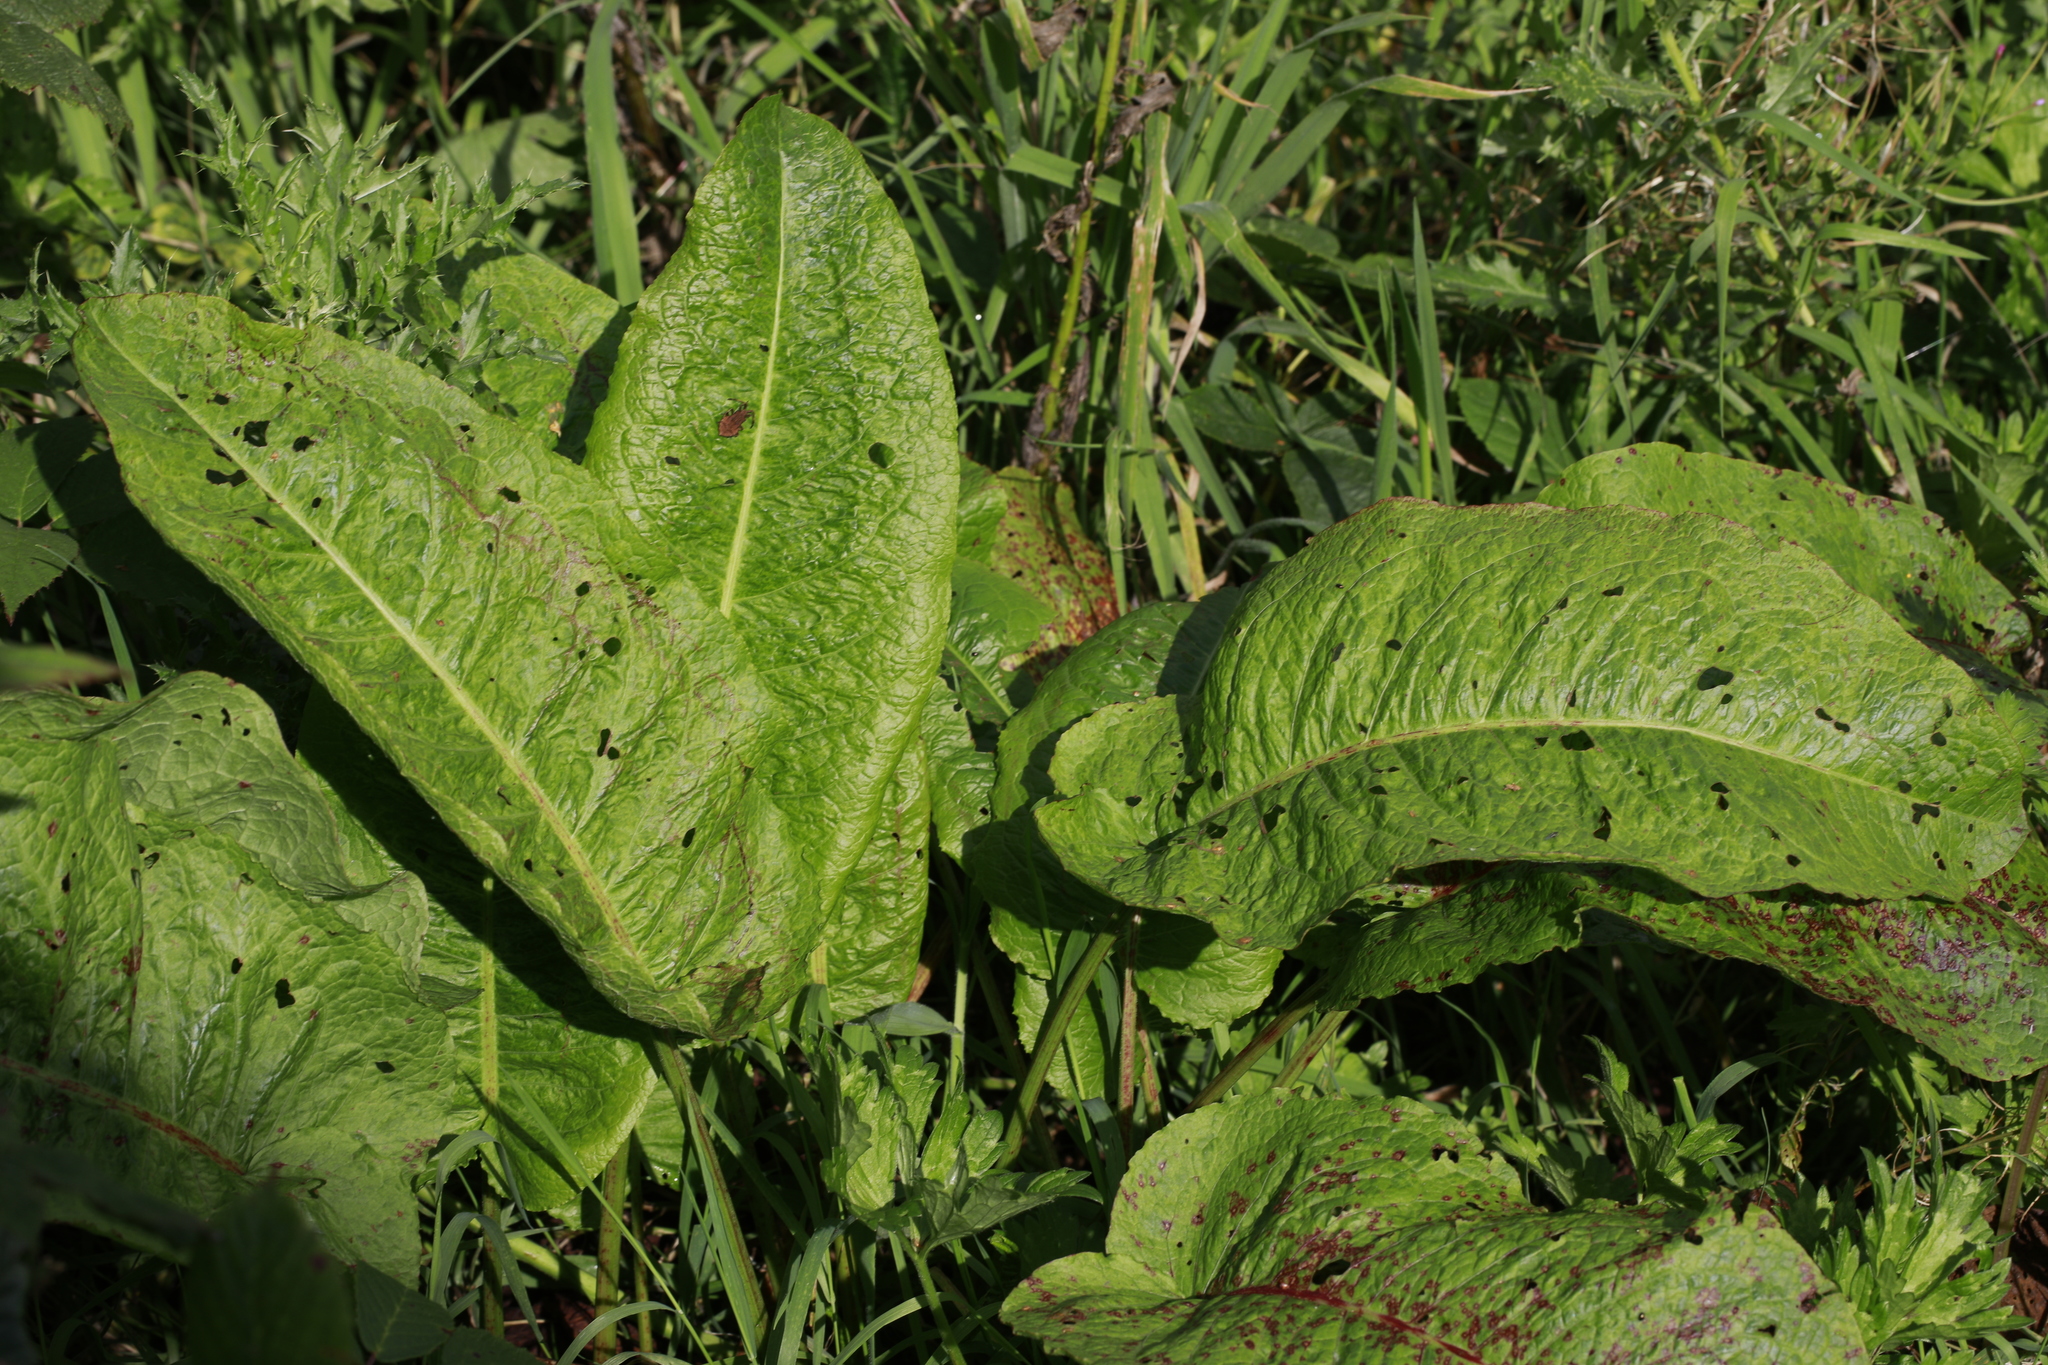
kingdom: Plantae
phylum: Tracheophyta
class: Magnoliopsida
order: Caryophyllales
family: Polygonaceae
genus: Rumex
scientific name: Rumex obtusifolius
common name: Bitter dock
